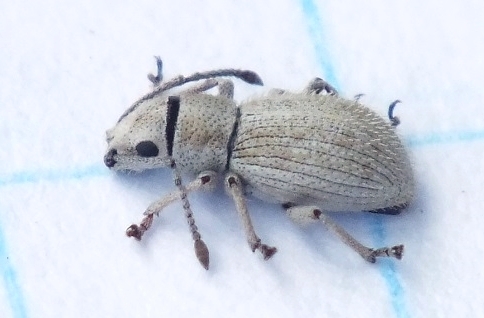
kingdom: Animalia
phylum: Arthropoda
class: Insecta
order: Coleoptera
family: Curculionidae
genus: Ptochus
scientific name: Ptochus porcellus
